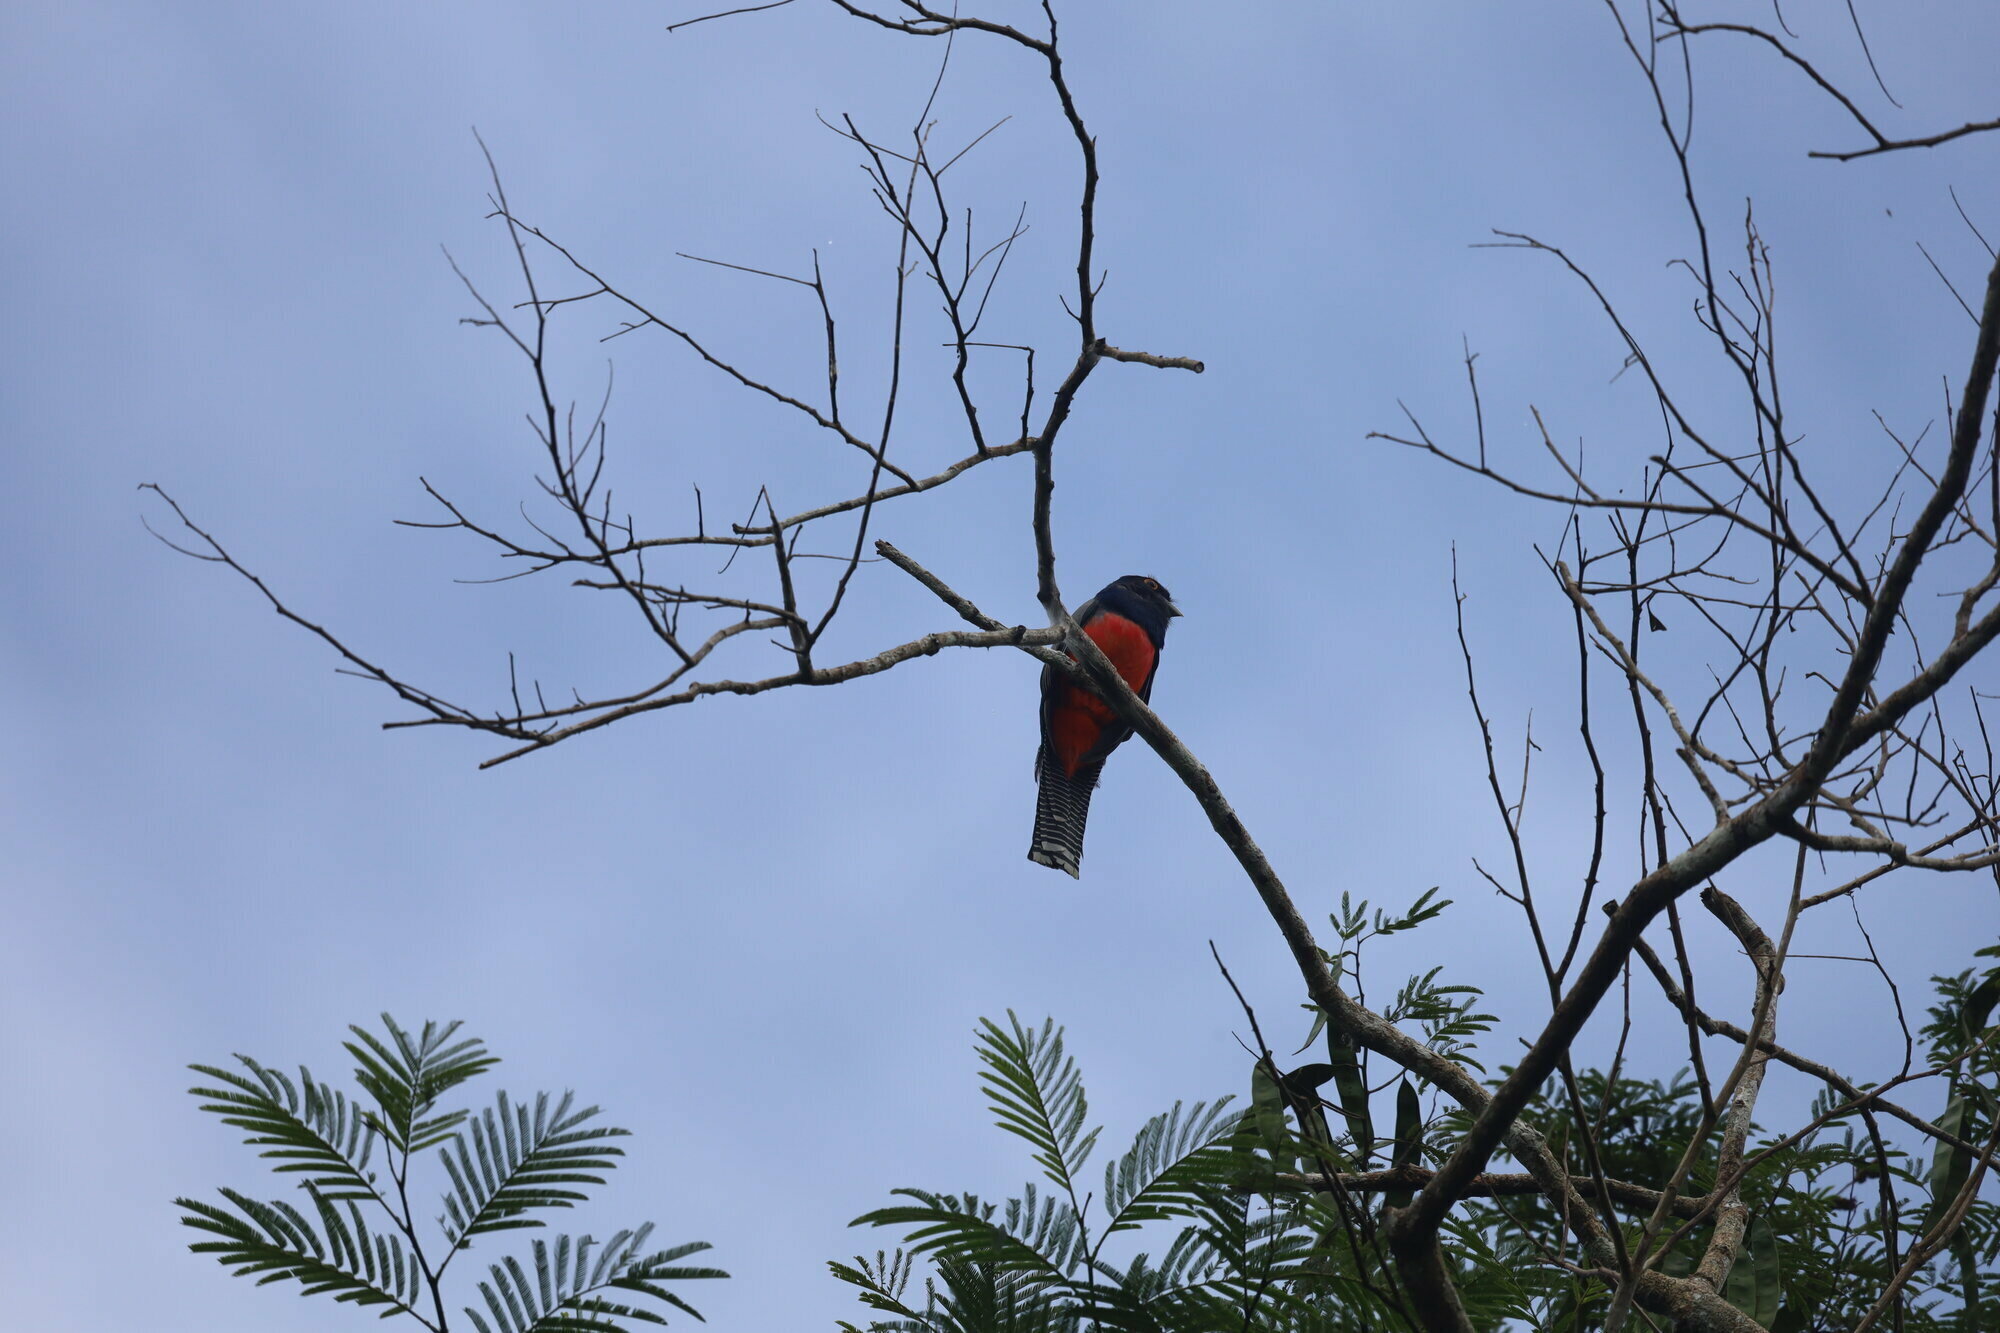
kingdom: Animalia
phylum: Chordata
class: Aves
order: Trogoniformes
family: Trogonidae
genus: Trogon
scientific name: Trogon curucui
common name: Blue-crowned trogon
